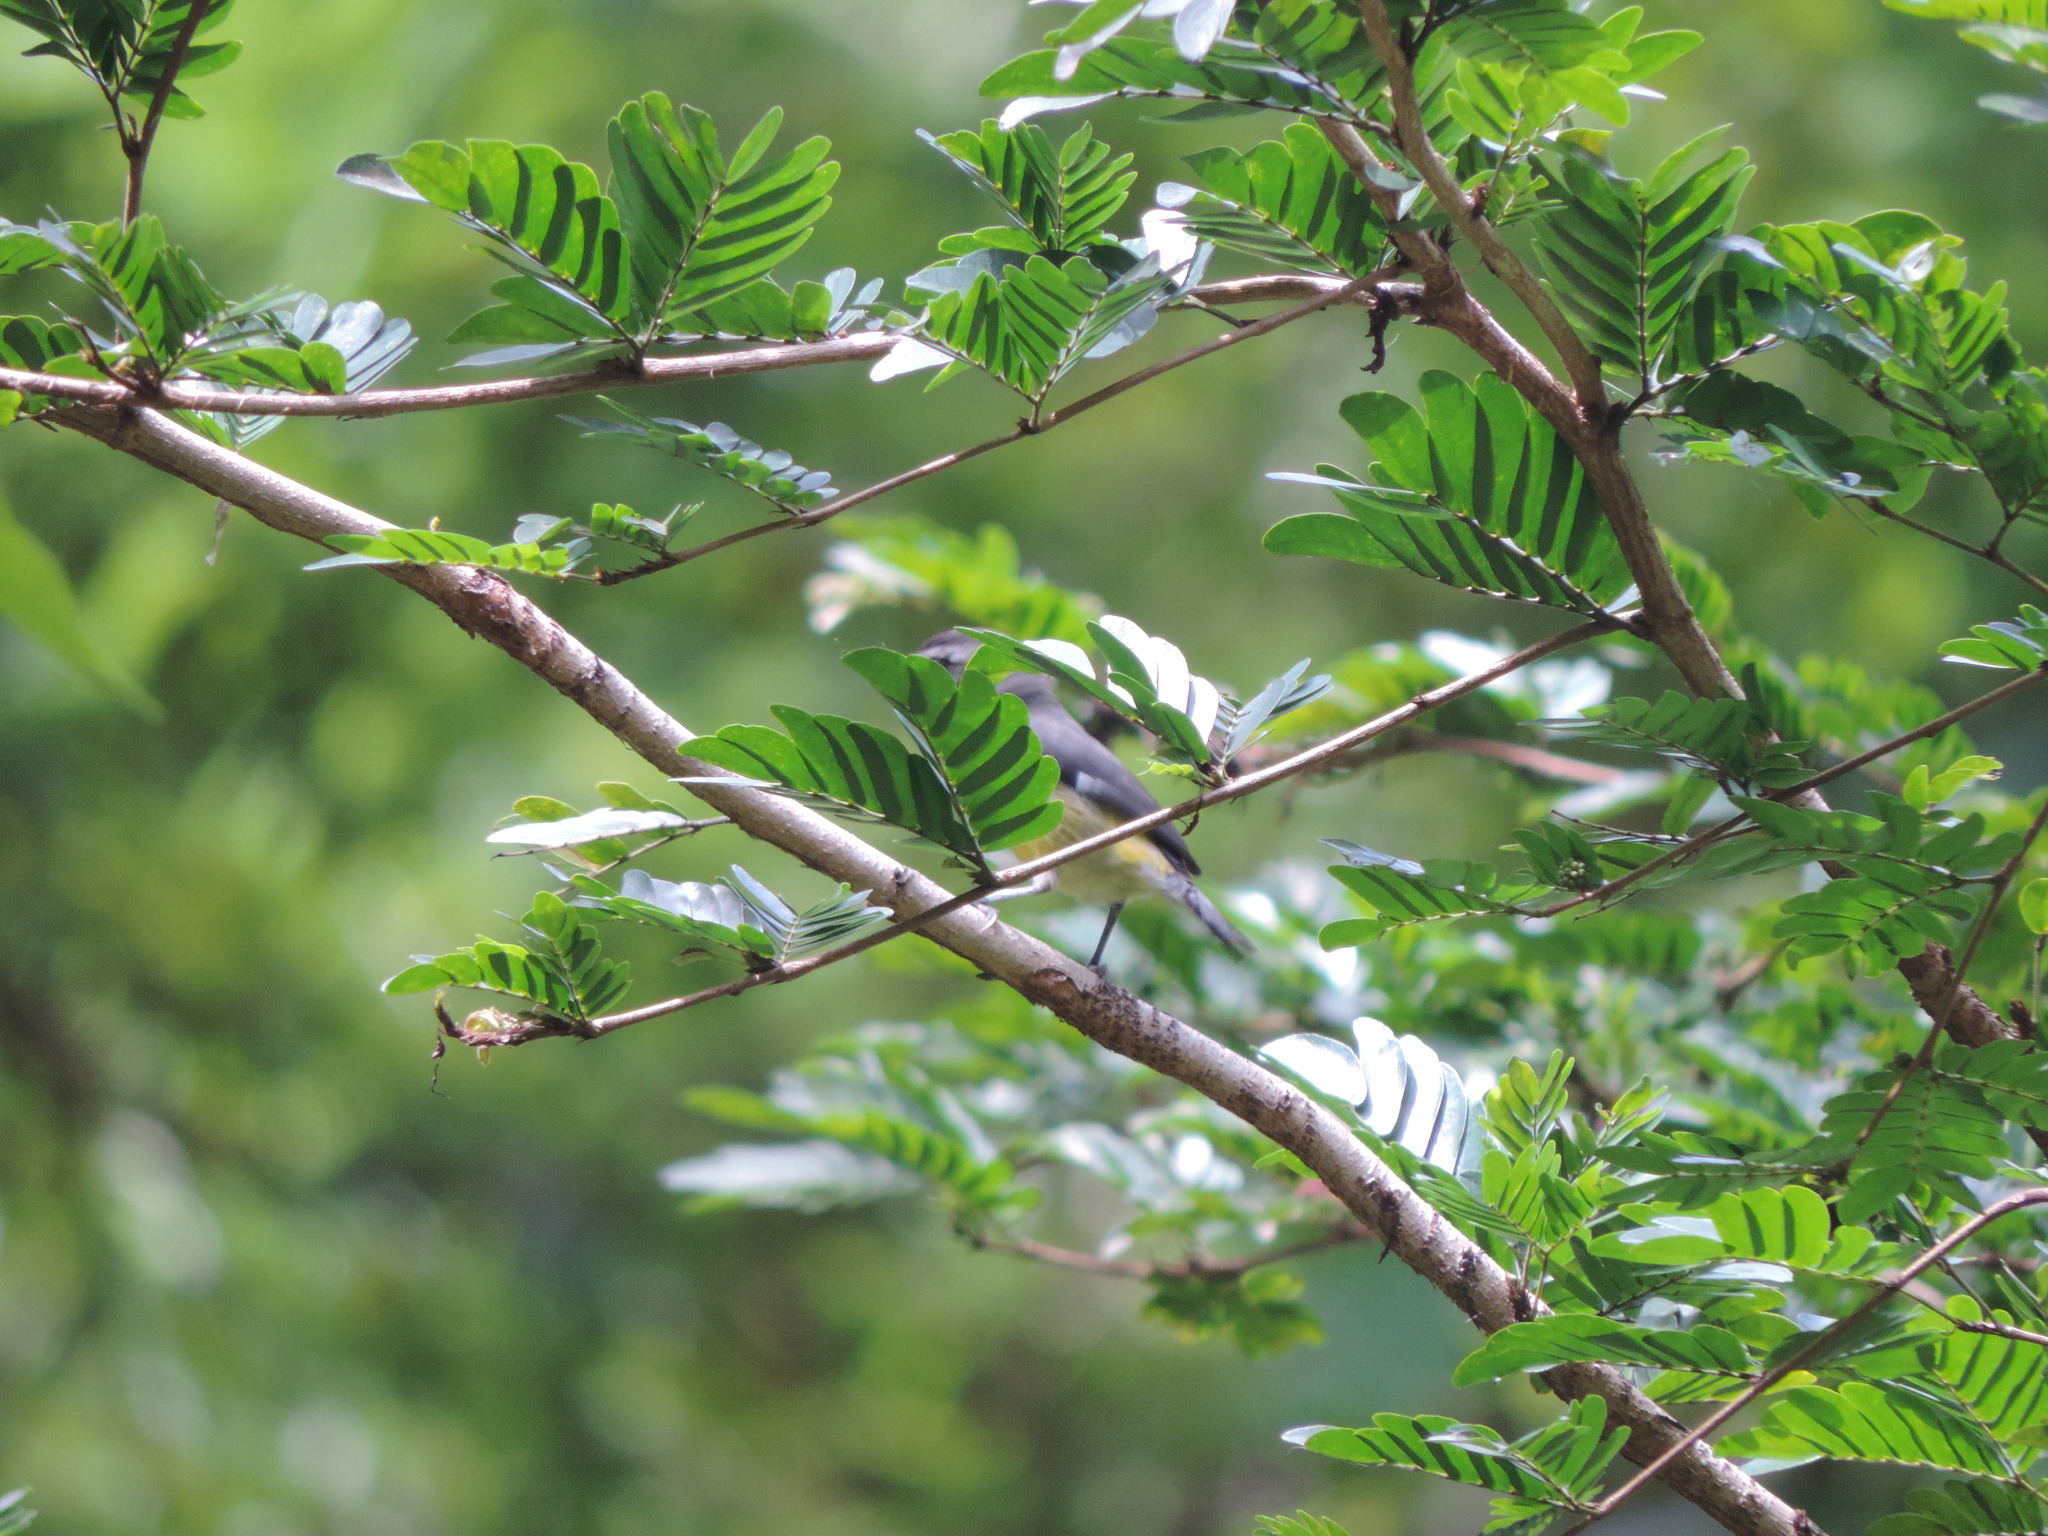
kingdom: Animalia
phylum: Chordata
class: Aves
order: Passeriformes
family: Thraupidae
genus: Coereba
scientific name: Coereba flaveola
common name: Bananaquit
